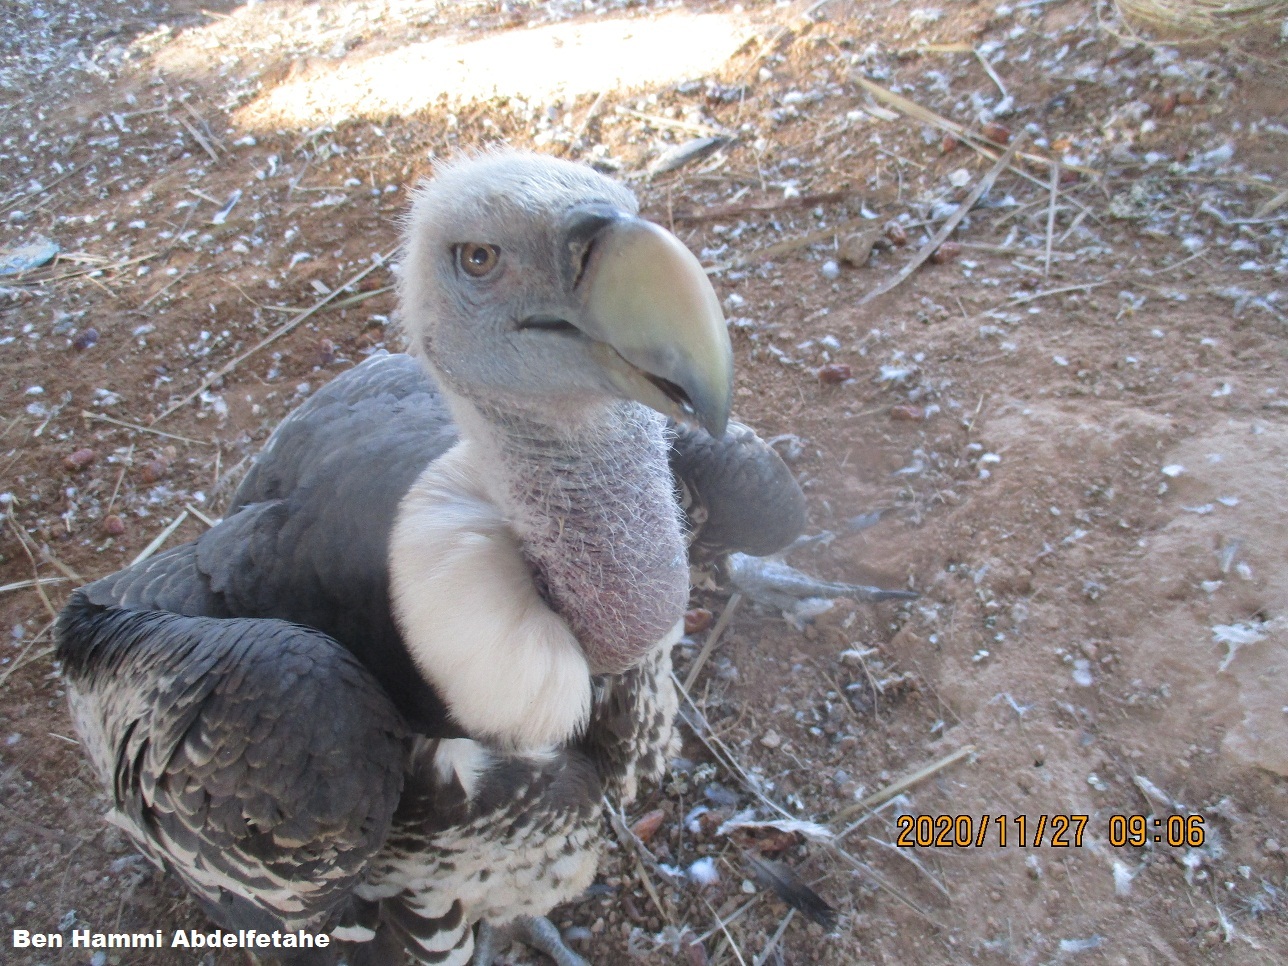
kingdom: Animalia
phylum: Chordata
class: Aves
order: Accipitriformes
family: Accipitridae
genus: Gyps
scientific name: Gyps rueppellii
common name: Rüppell's vulture
